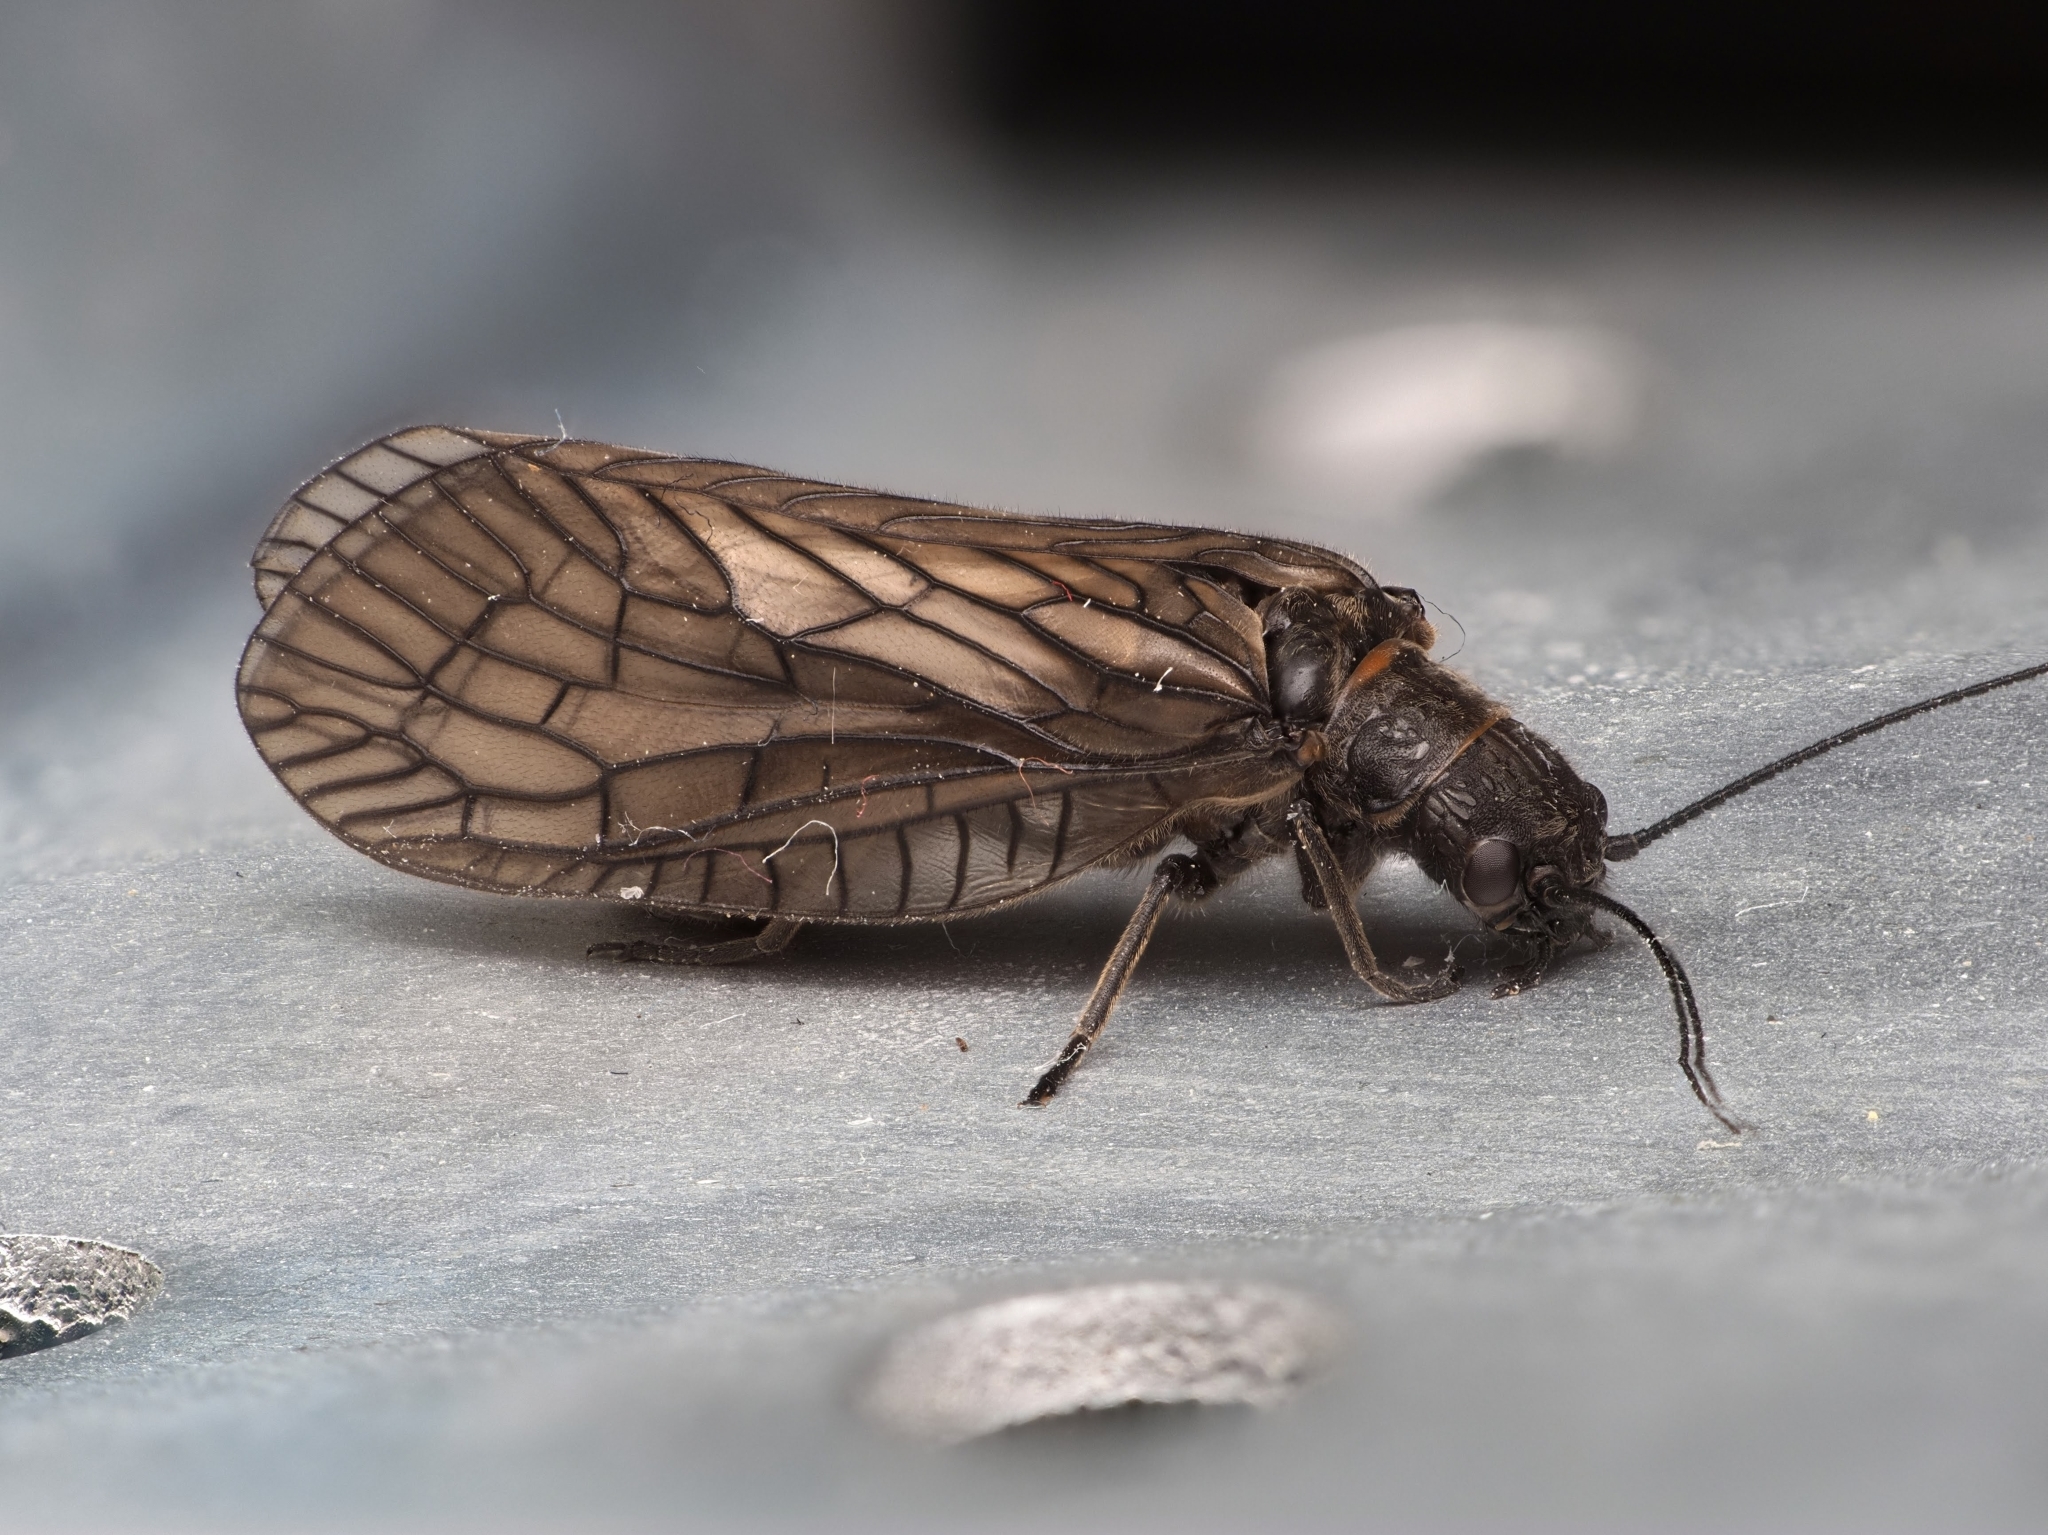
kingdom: Animalia
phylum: Arthropoda
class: Insecta
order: Megaloptera
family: Sialidae
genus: Sialis
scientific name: Sialis
